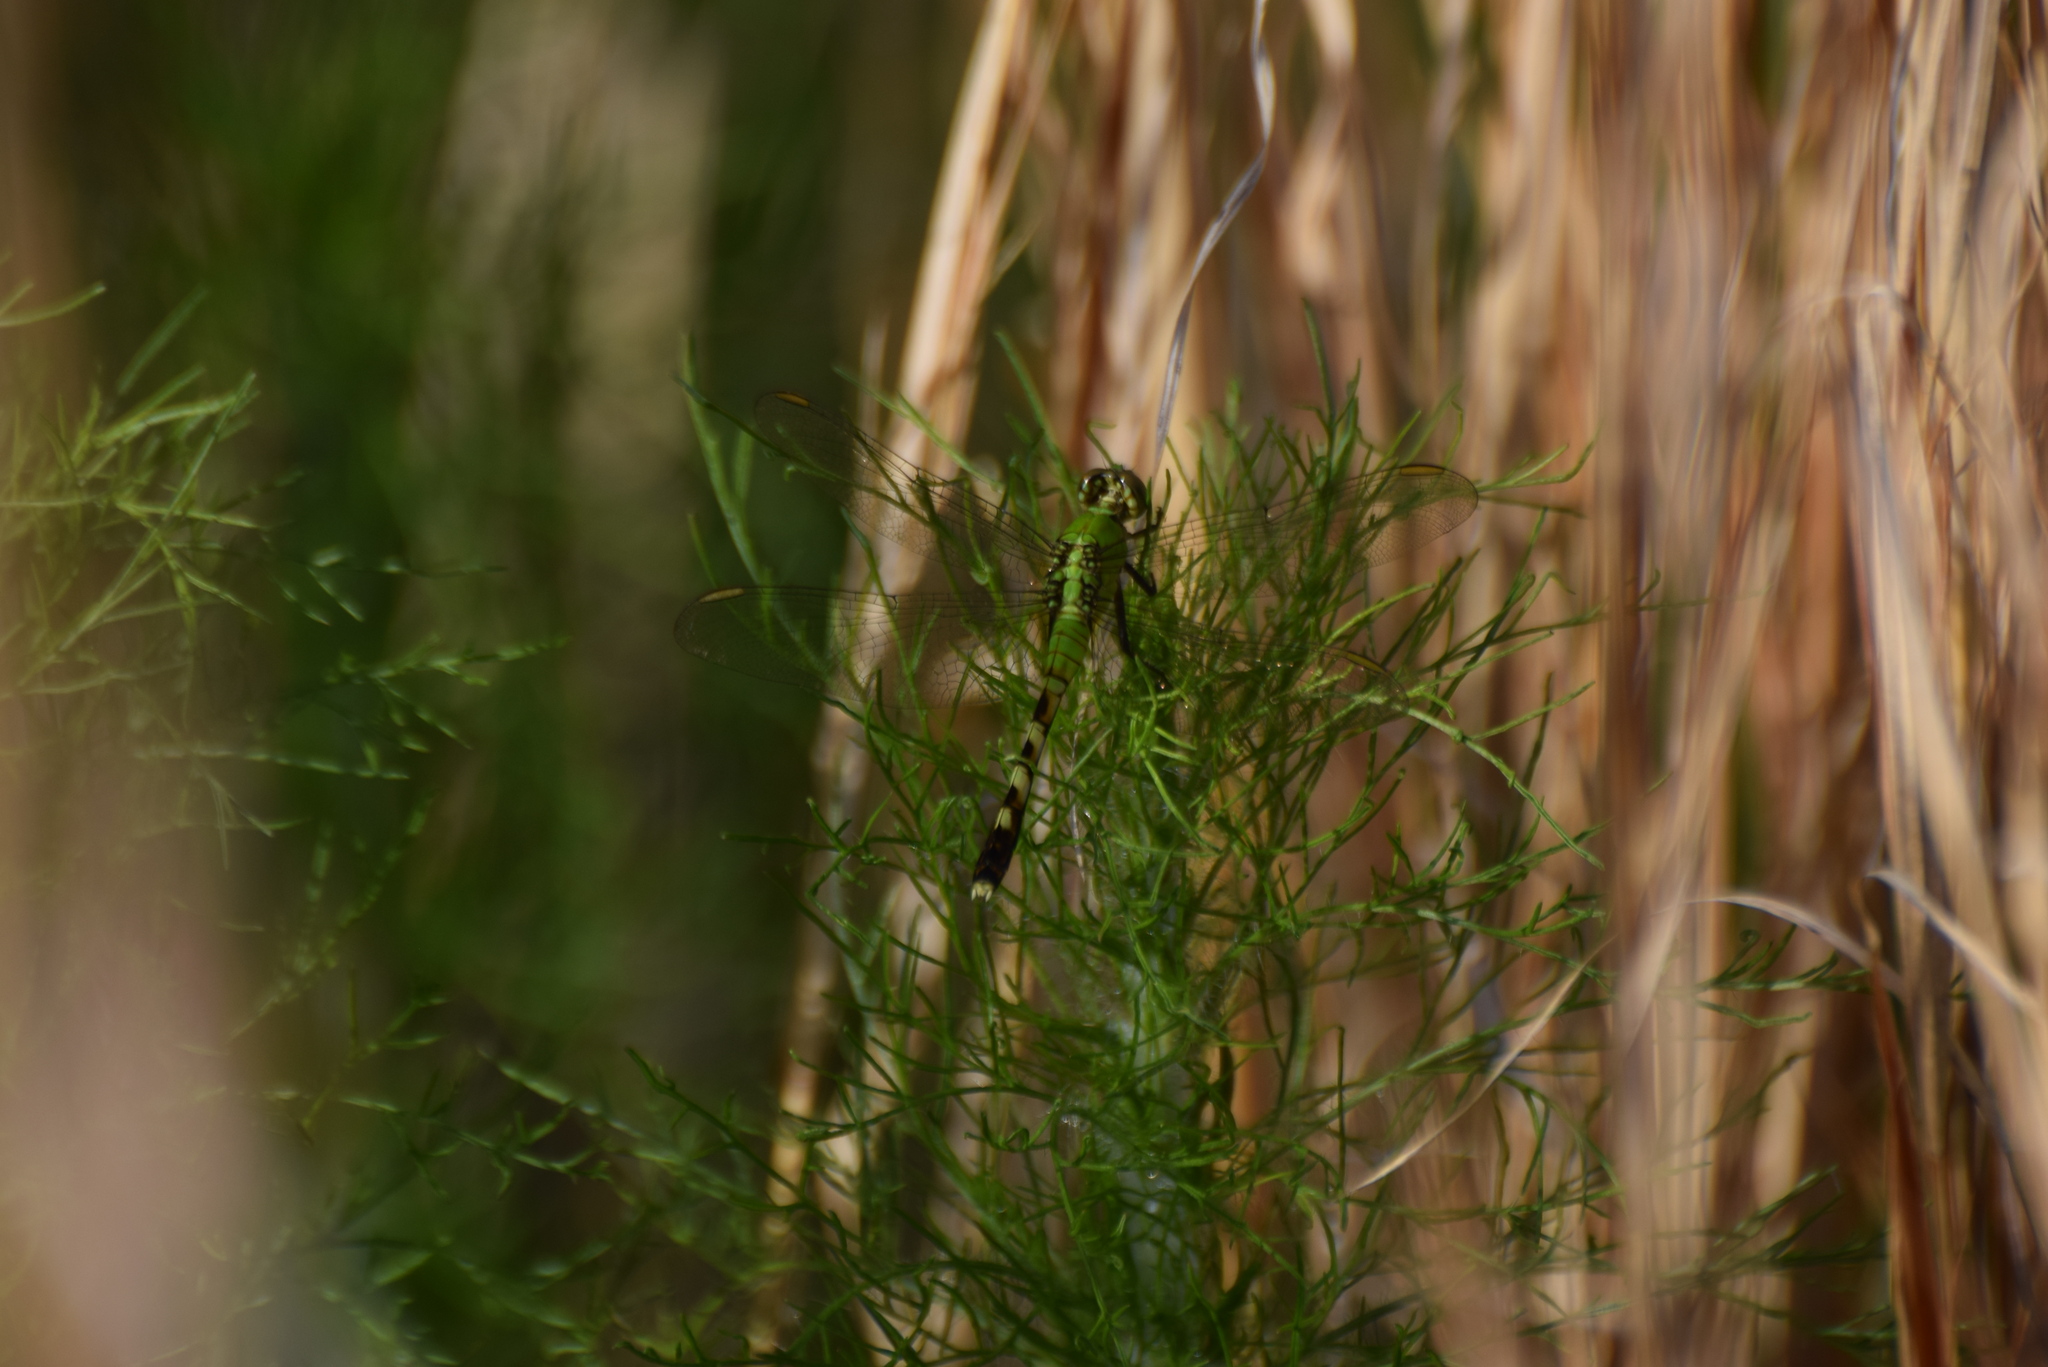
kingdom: Animalia
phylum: Arthropoda
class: Insecta
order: Odonata
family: Libellulidae
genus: Erythemis
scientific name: Erythemis simplicicollis
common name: Eastern pondhawk
